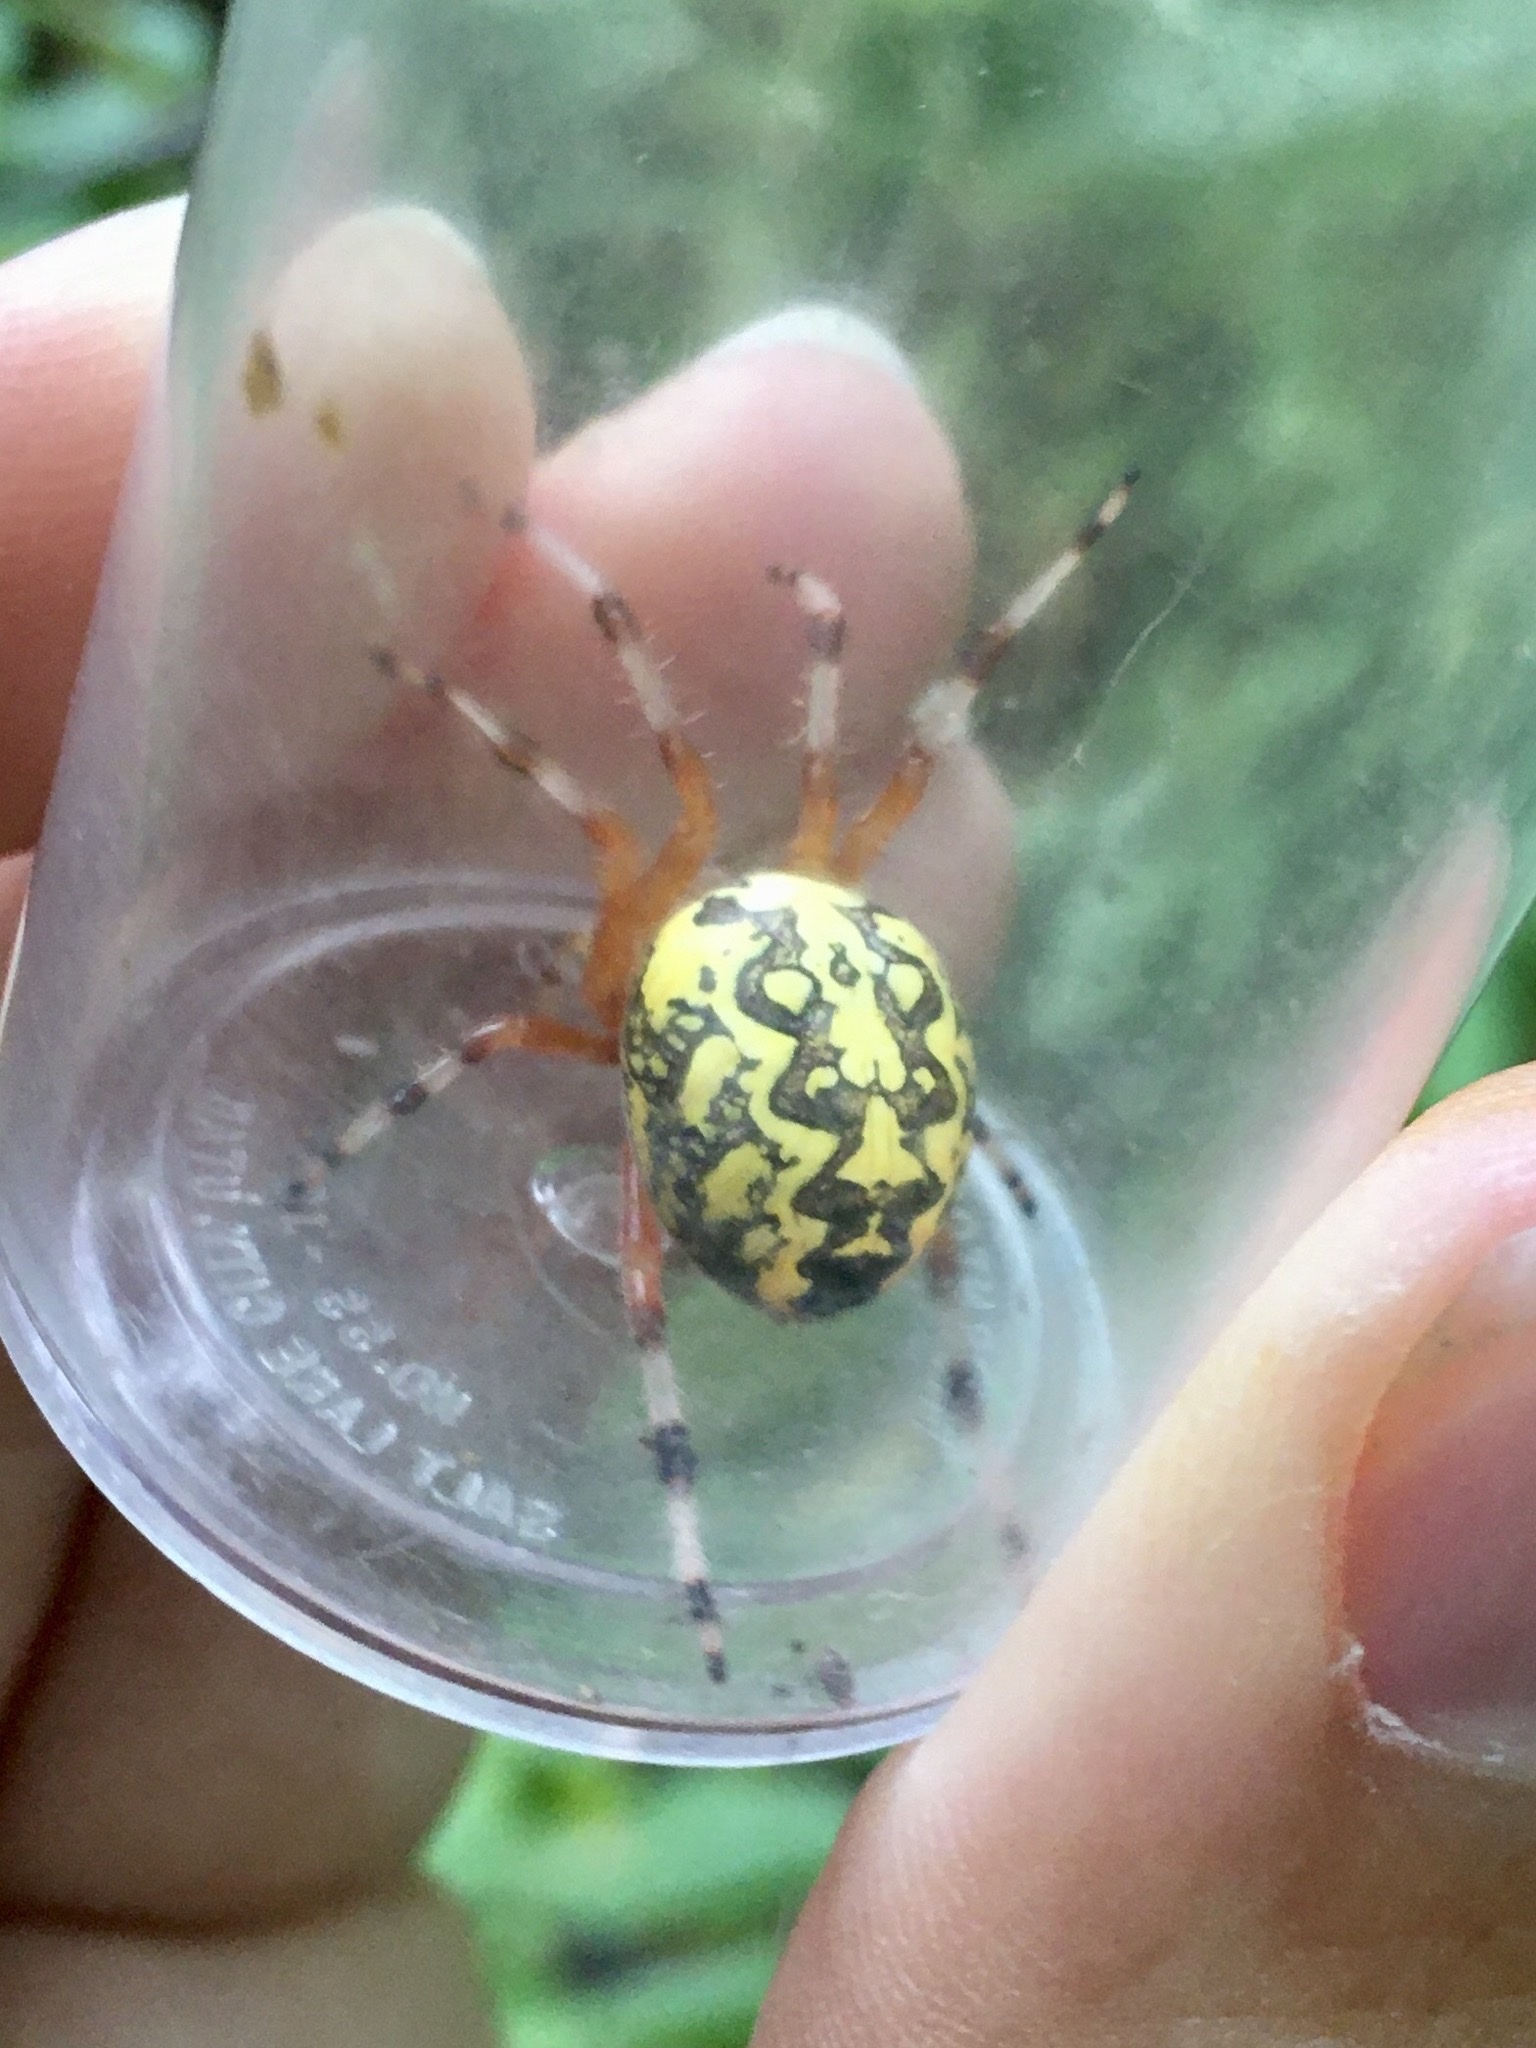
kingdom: Animalia
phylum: Arthropoda
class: Arachnida
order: Araneae
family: Araneidae
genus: Araneus
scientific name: Araneus marmoreus
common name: Marbled orbweaver
